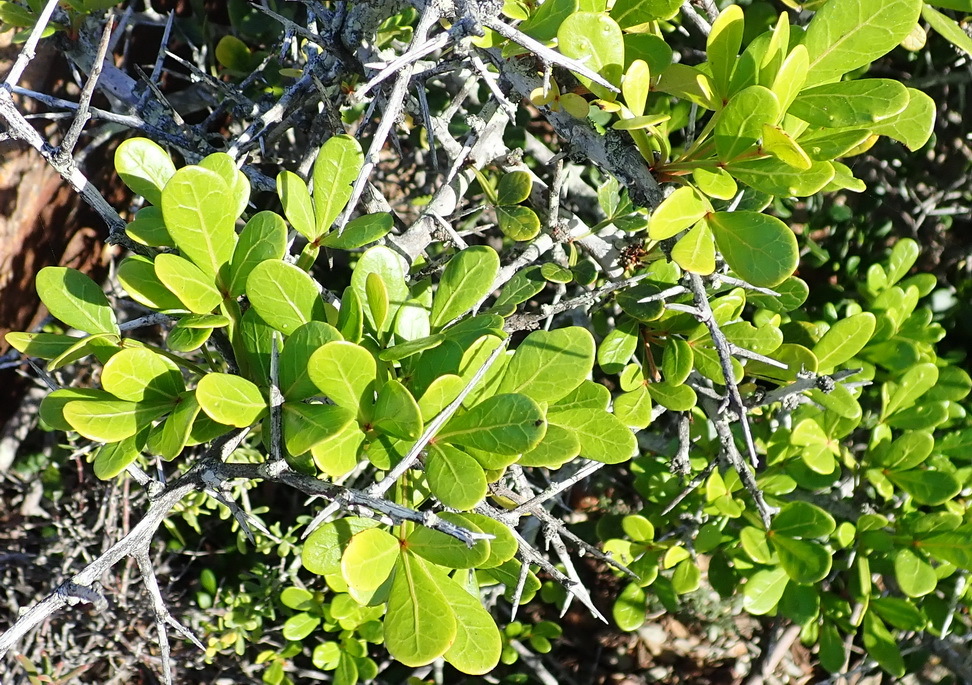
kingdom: Plantae
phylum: Tracheophyta
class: Magnoliopsida
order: Sapindales
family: Anacardiaceae
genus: Searsia
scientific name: Searsia pterota
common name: Winged currant
